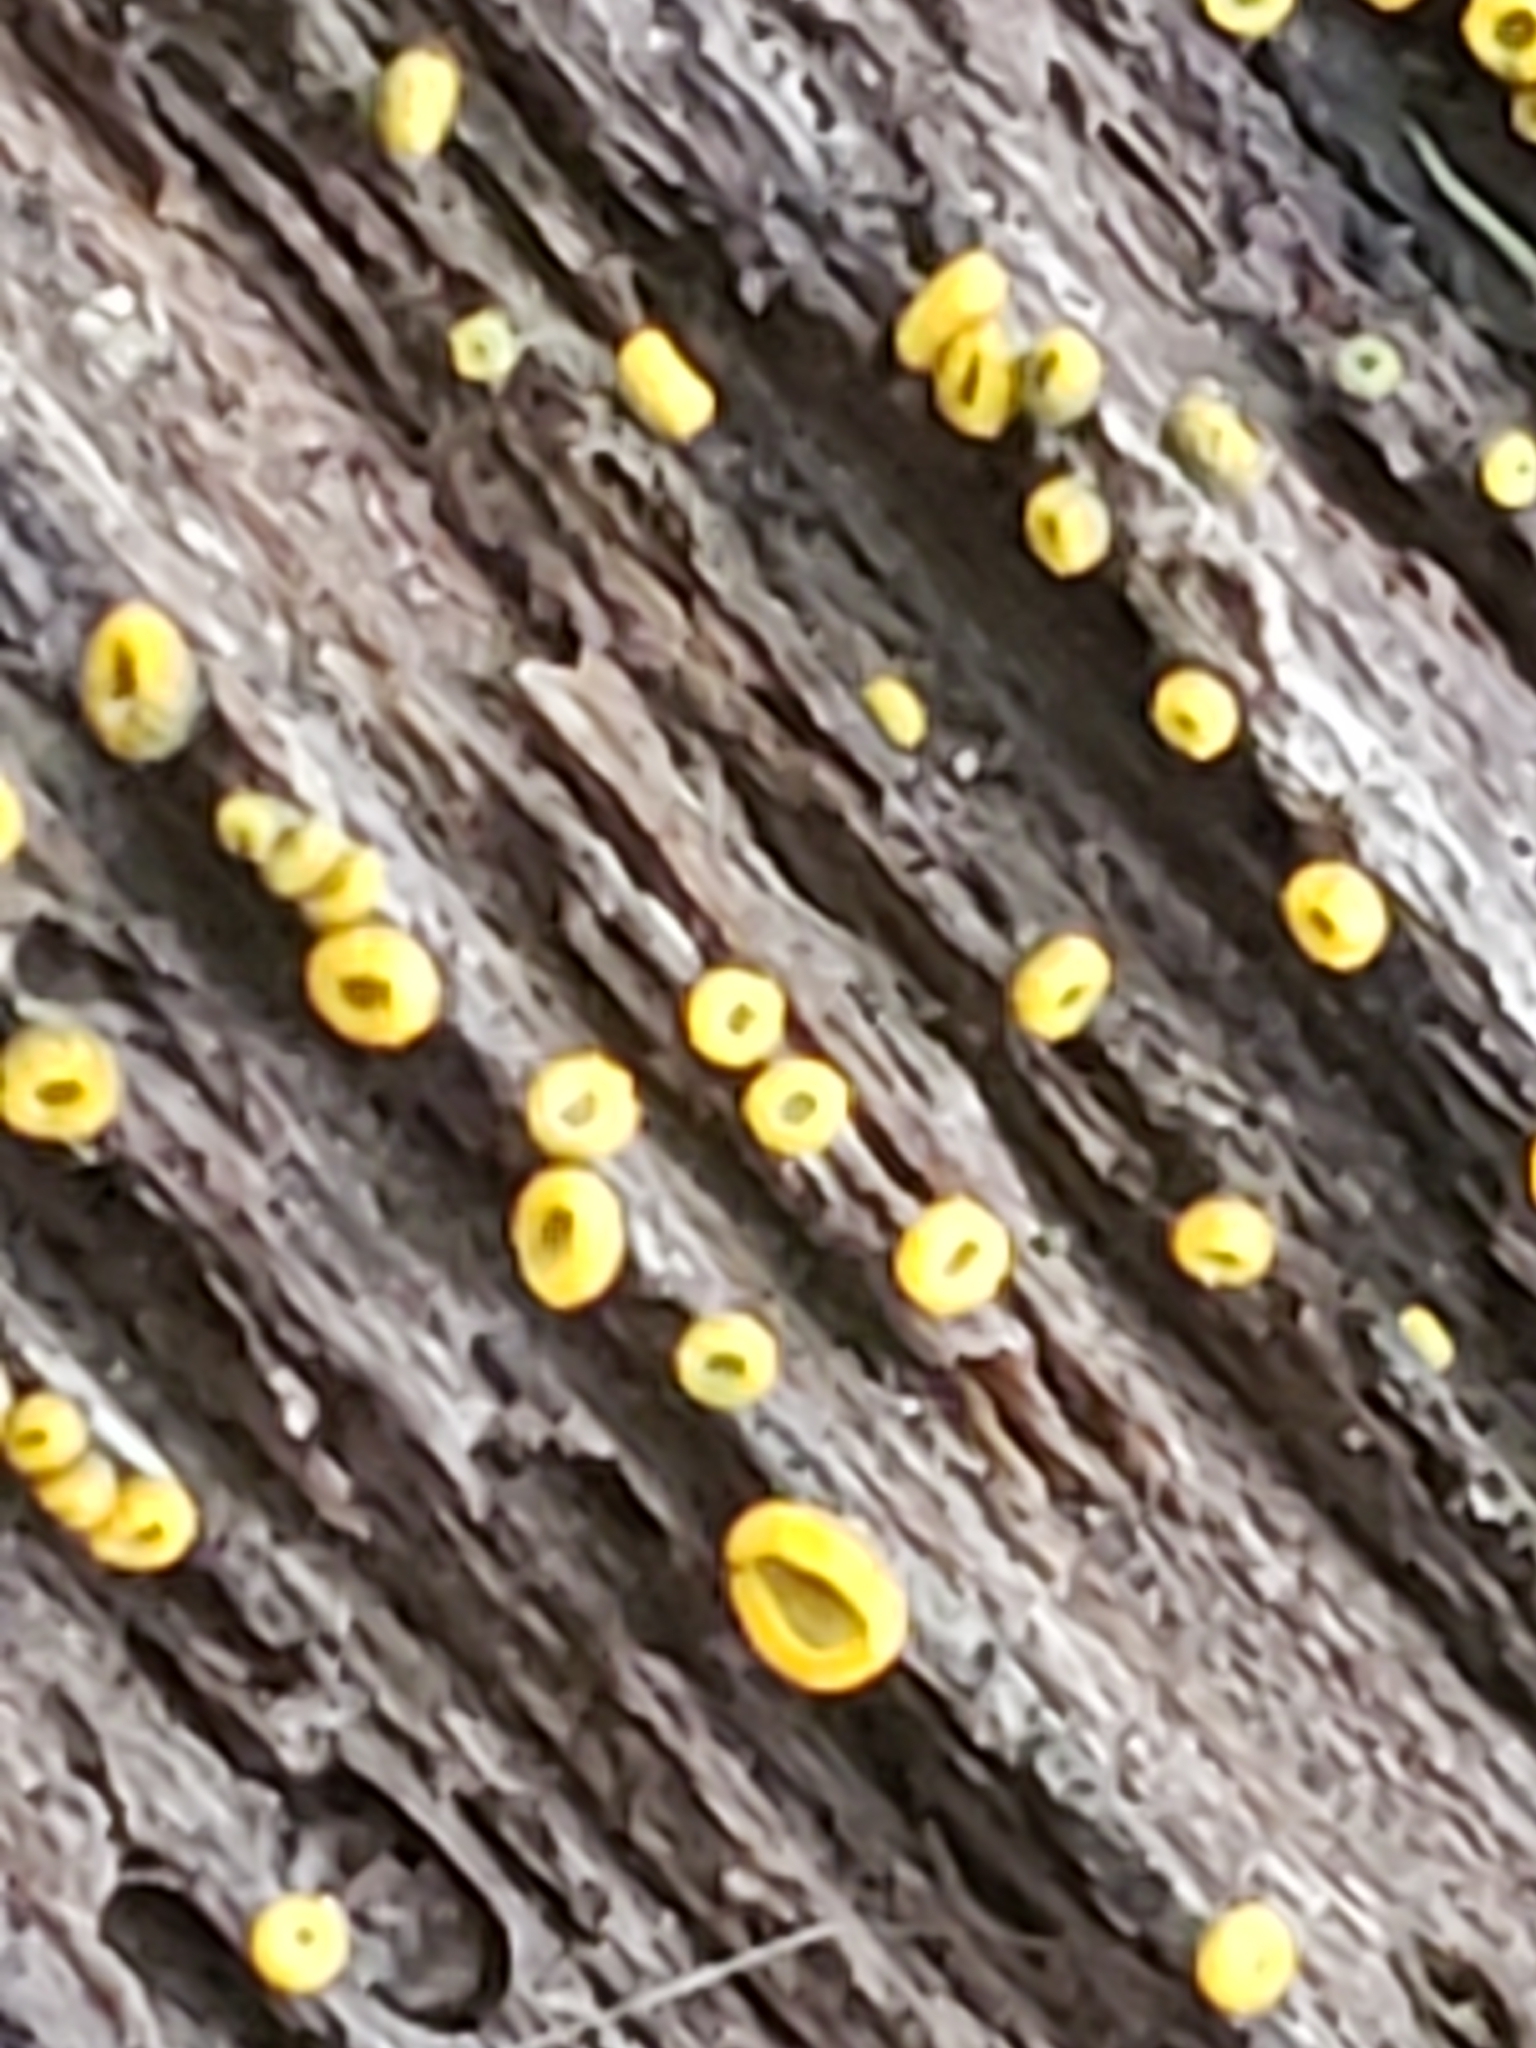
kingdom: Fungi
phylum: Ascomycota
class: Leotiomycetes
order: Helotiales
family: Chlorospleniaceae
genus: Chlorosplenium
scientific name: Chlorosplenium chlora
